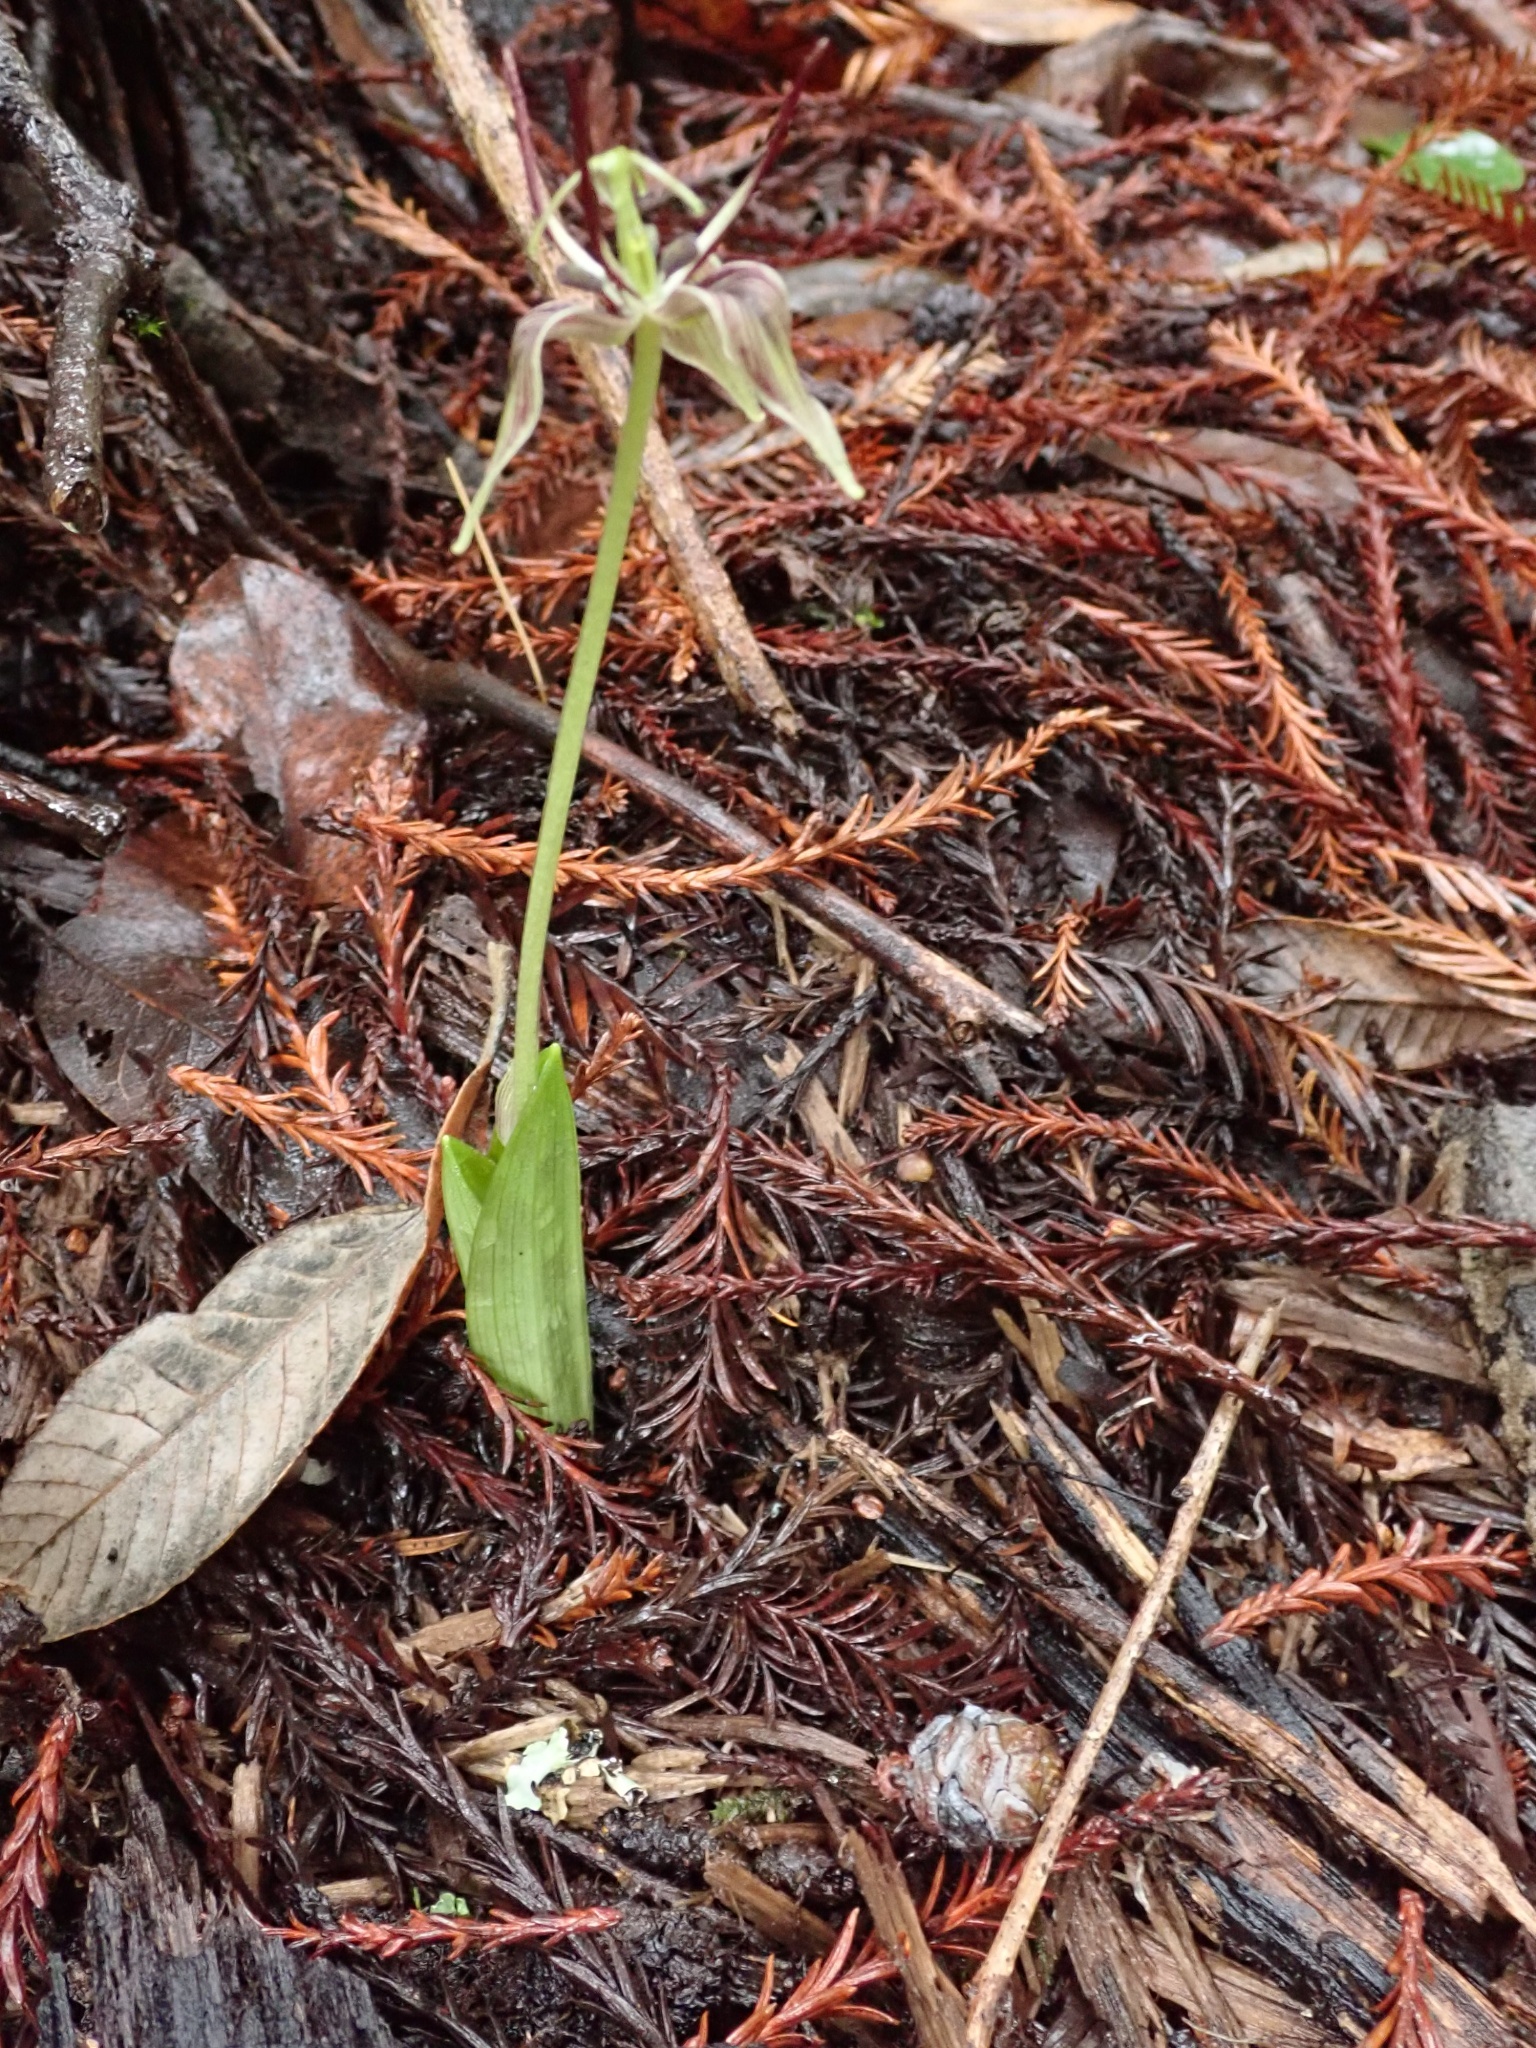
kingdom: Plantae
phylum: Tracheophyta
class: Liliopsida
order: Liliales
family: Liliaceae
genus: Scoliopus
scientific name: Scoliopus bigelovii
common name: Foetid adder's-tongue
